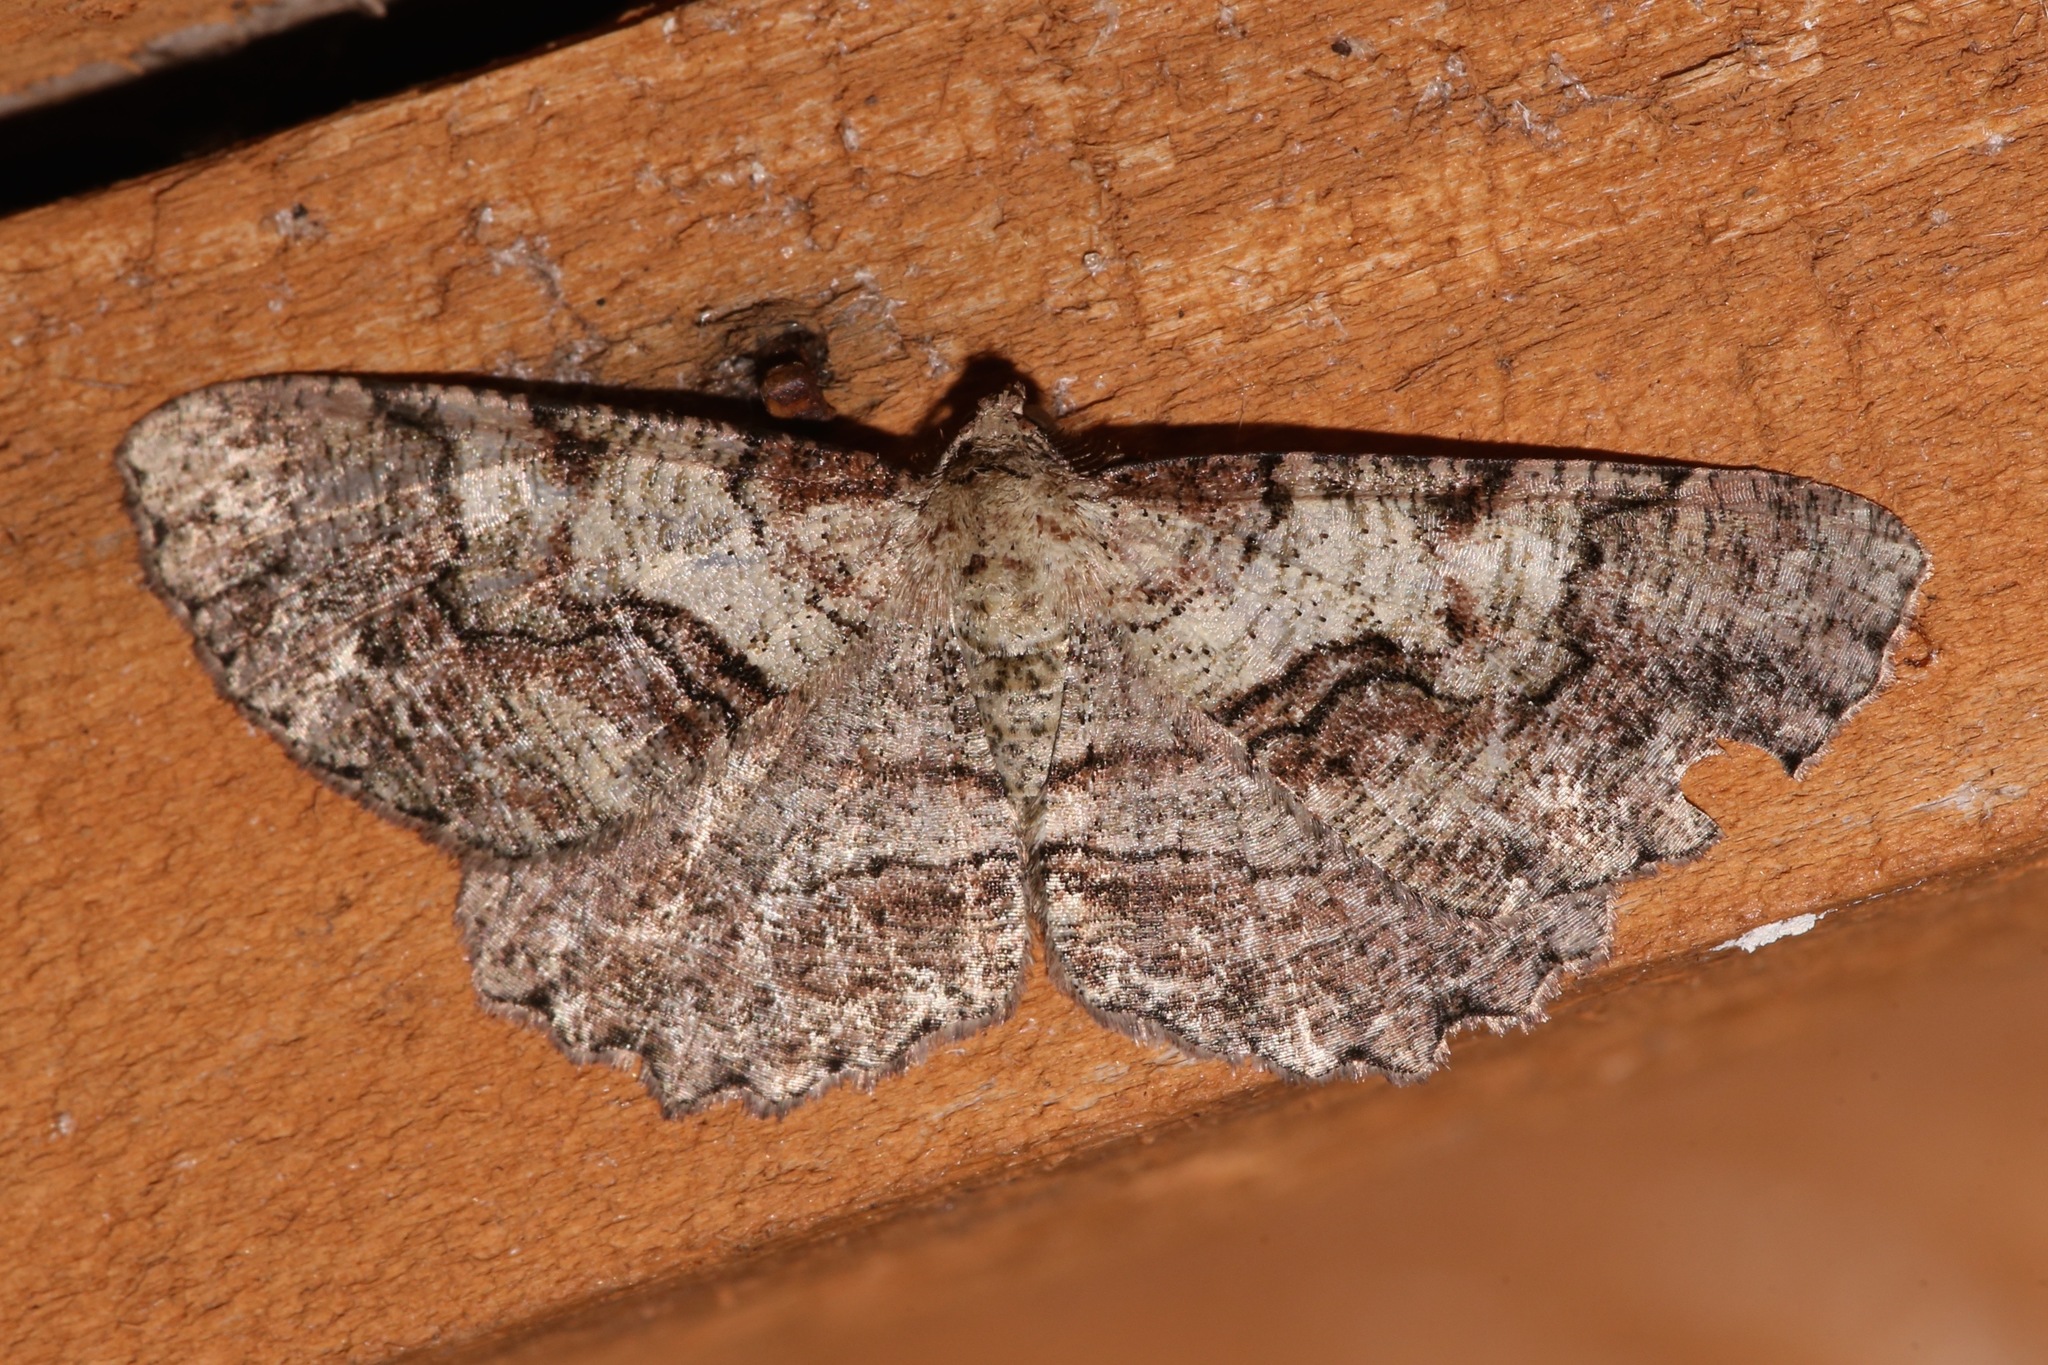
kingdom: Animalia
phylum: Arthropoda
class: Insecta
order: Lepidoptera
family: Geometridae
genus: Cymatophora
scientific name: Cymatophora approximaria
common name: Giant gray moth
